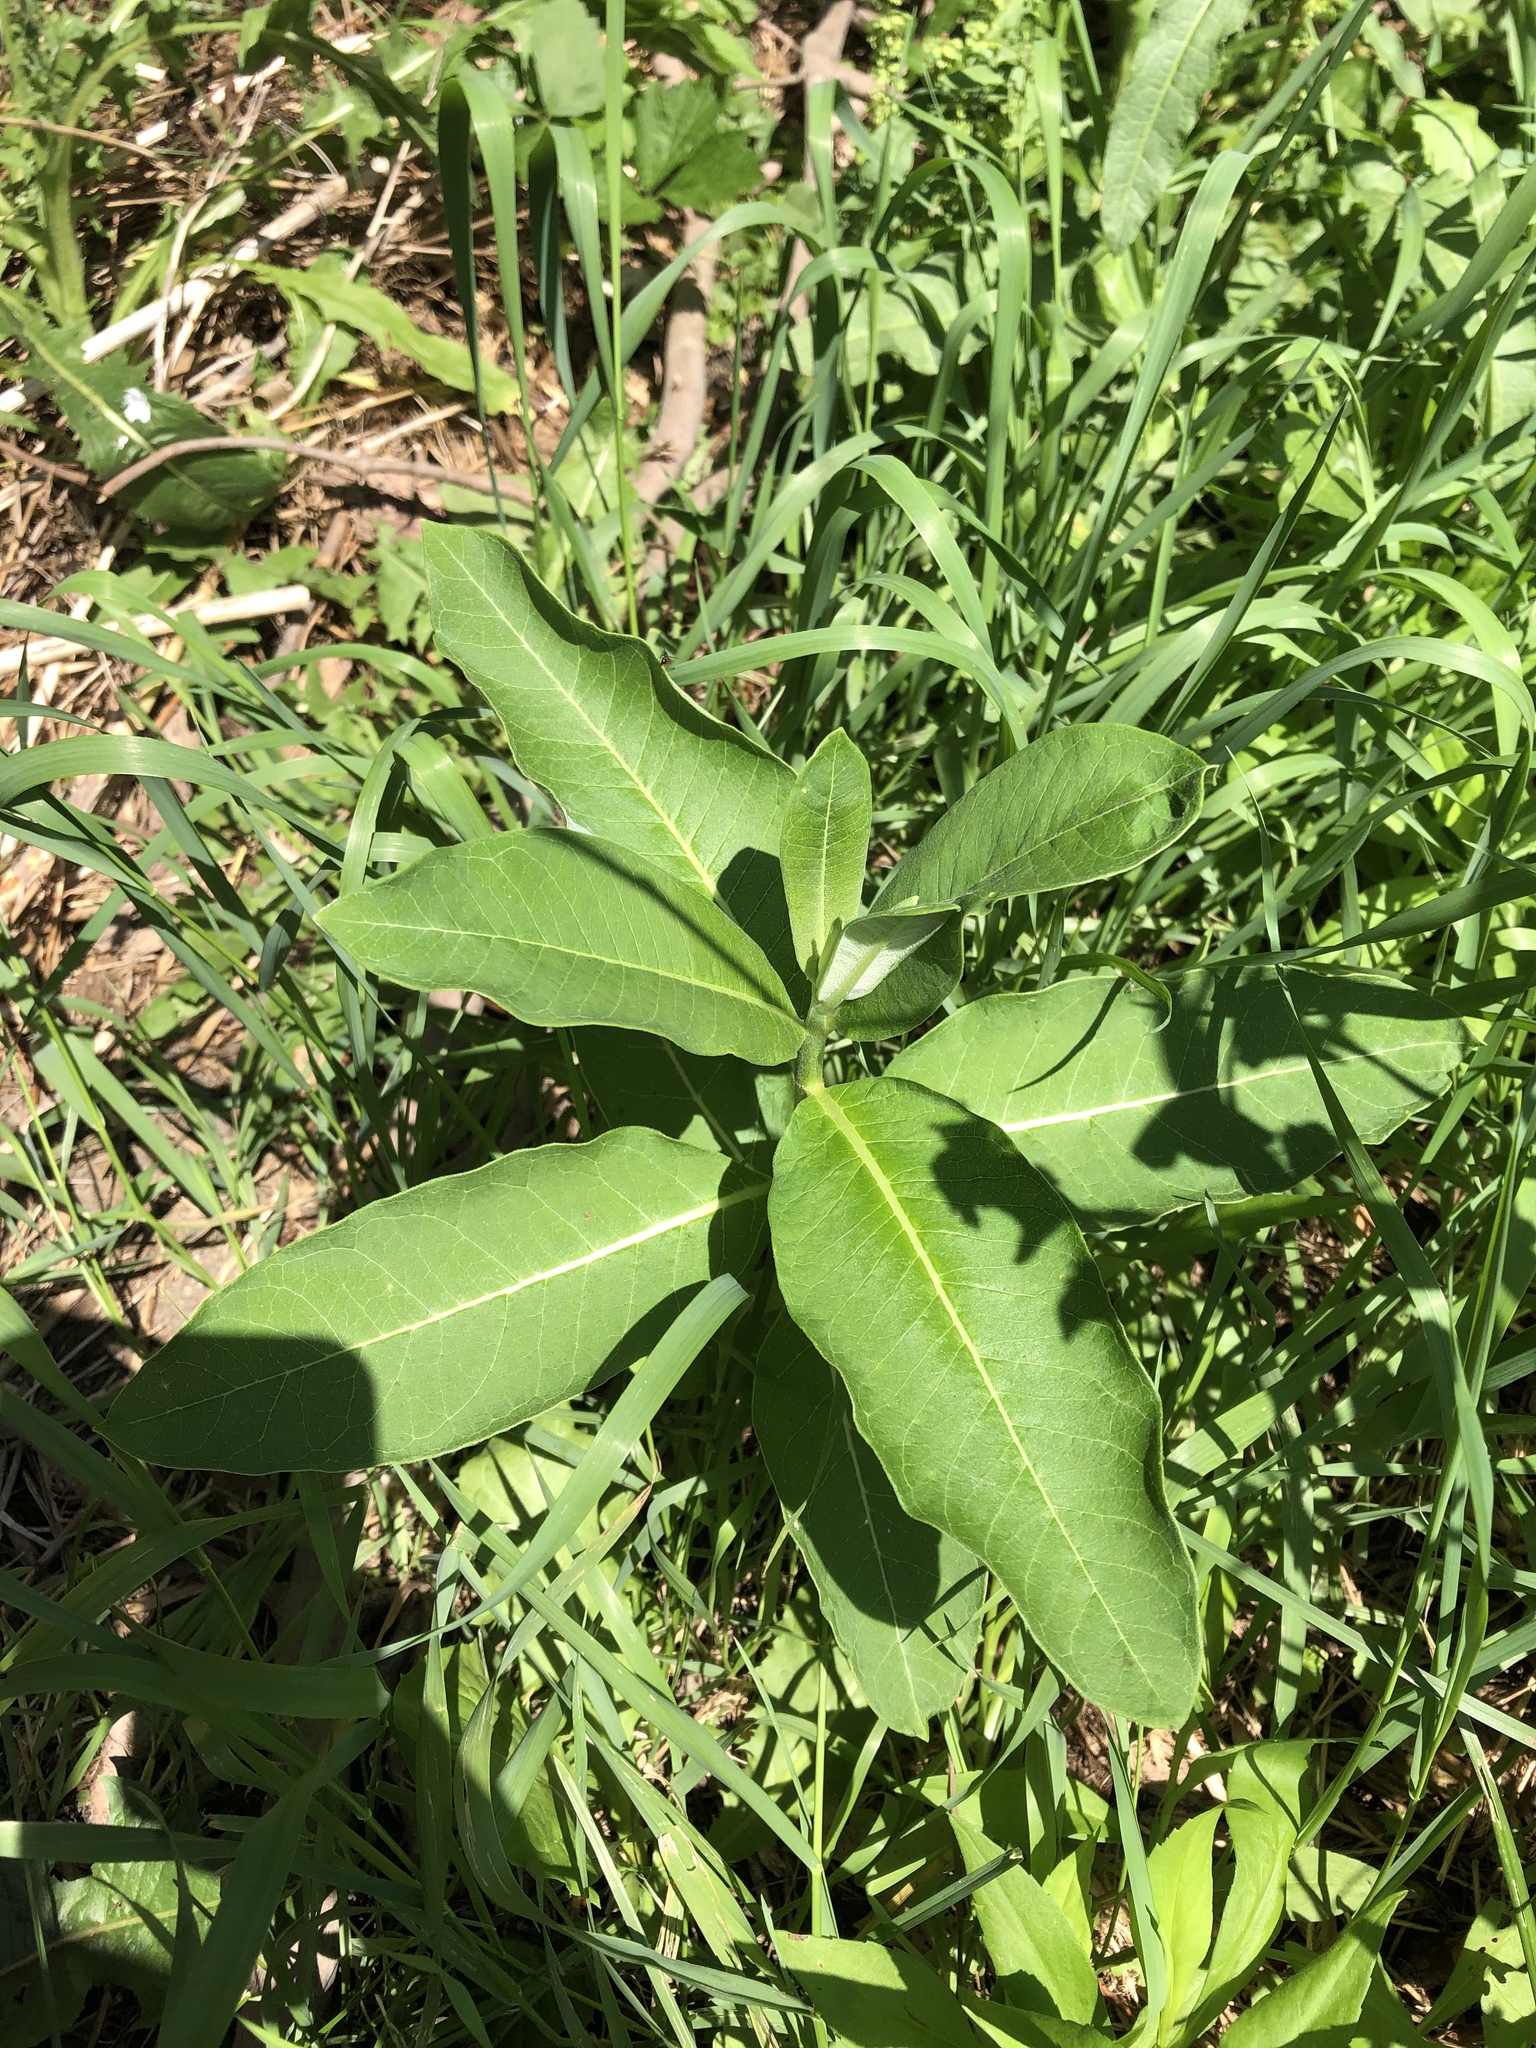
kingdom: Plantae
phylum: Tracheophyta
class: Magnoliopsida
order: Gentianales
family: Apocynaceae
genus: Asclepias
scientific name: Asclepias syriaca
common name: Common milkweed
